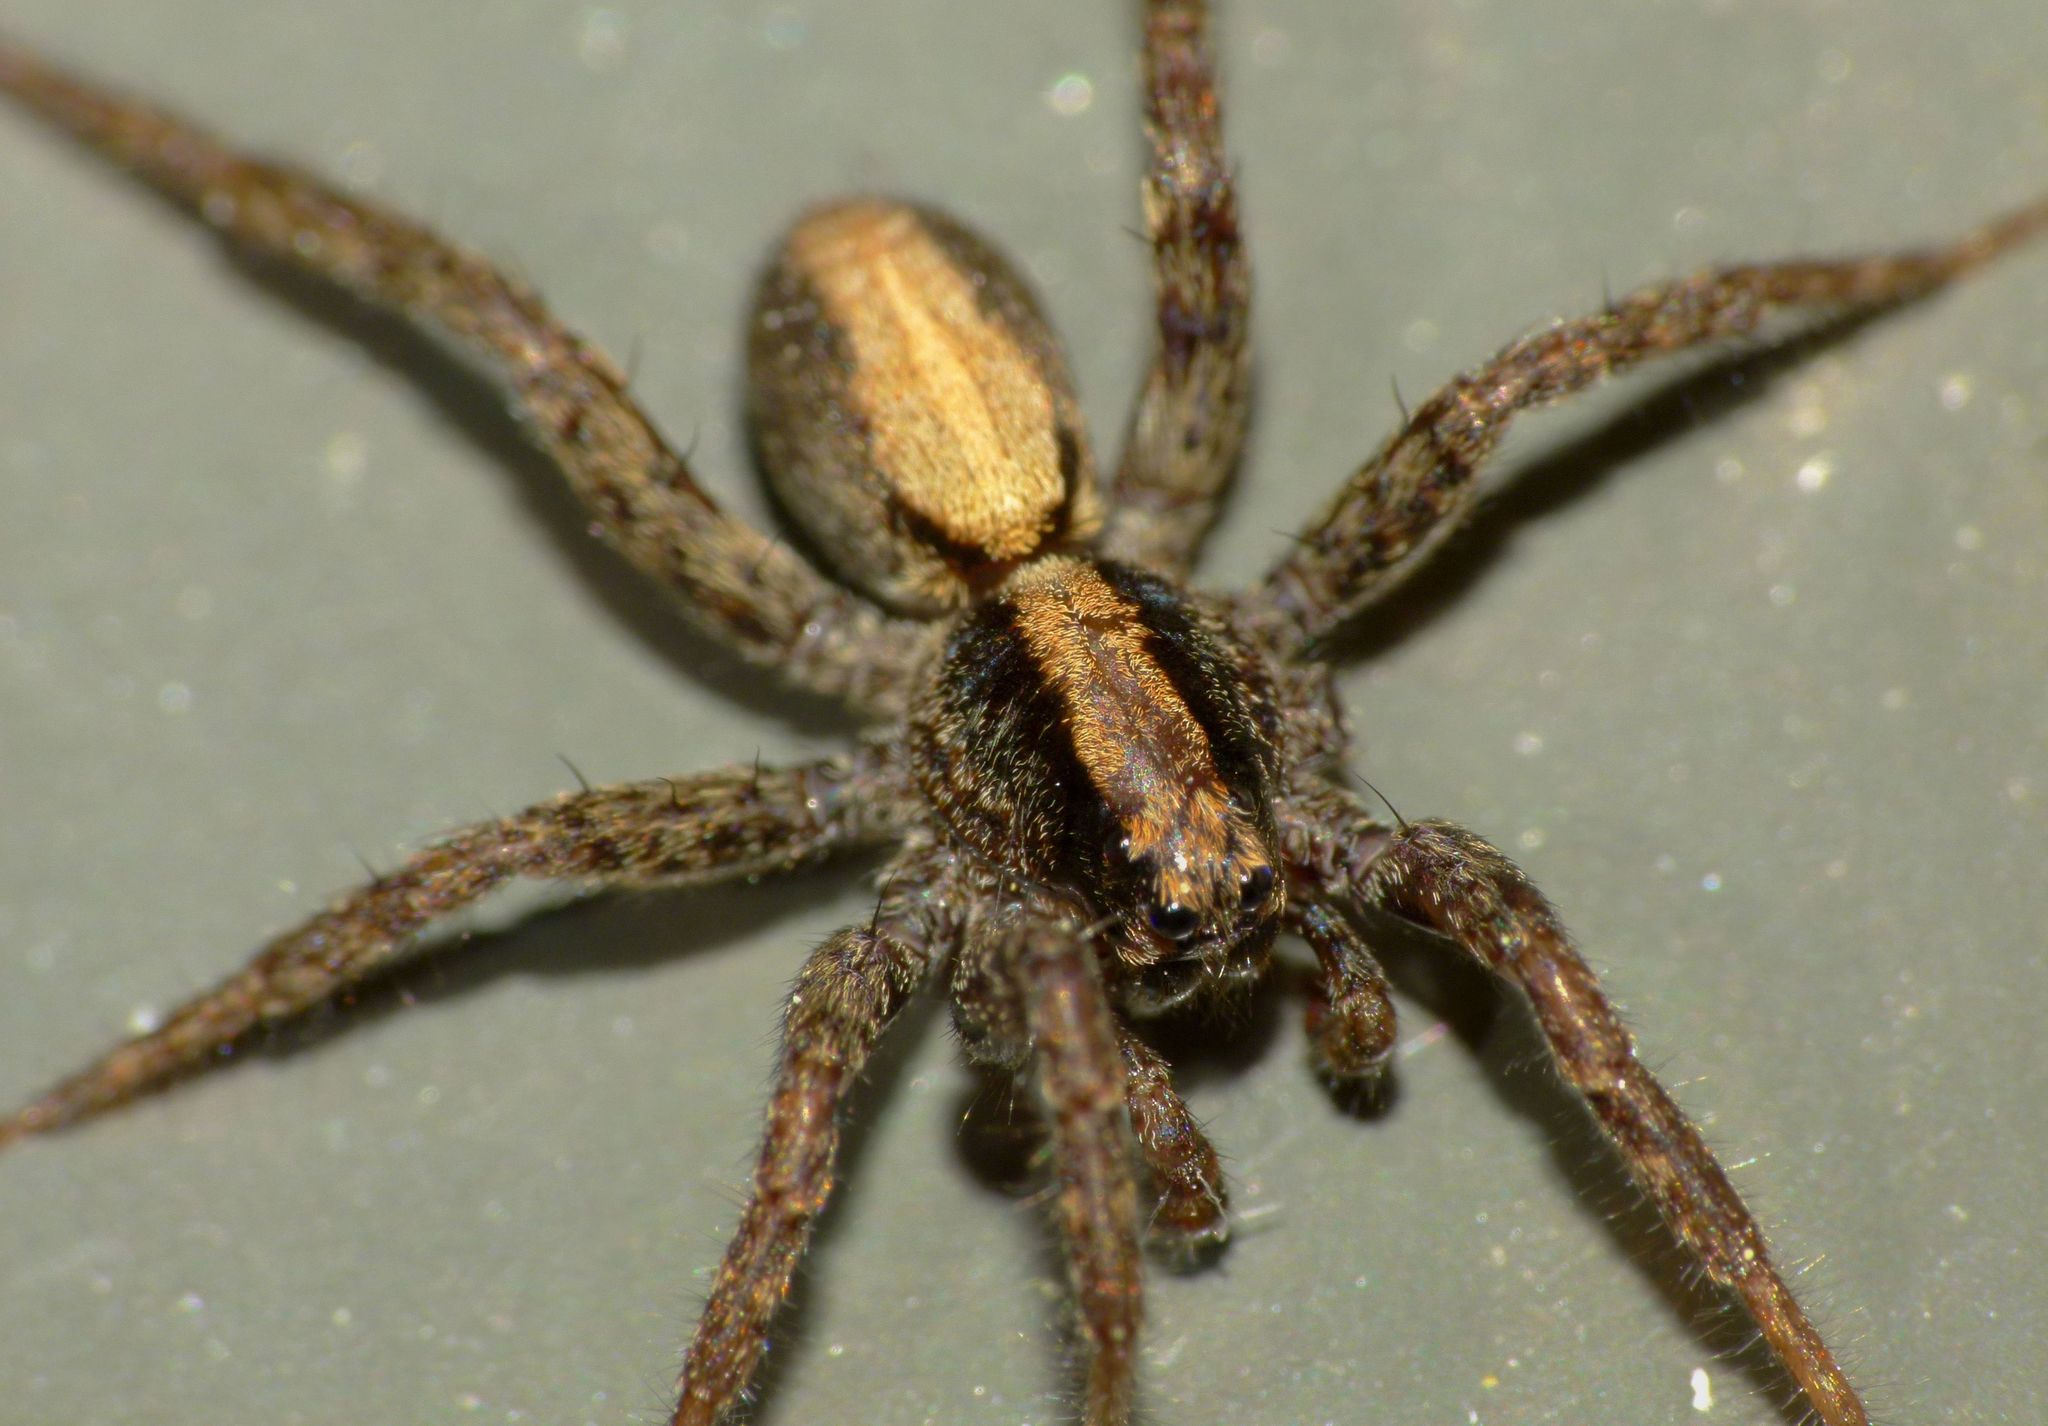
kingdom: Animalia
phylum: Arthropoda
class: Arachnida
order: Araneae
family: Lycosidae
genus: Anoteropsis
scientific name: Anoteropsis hilaris
